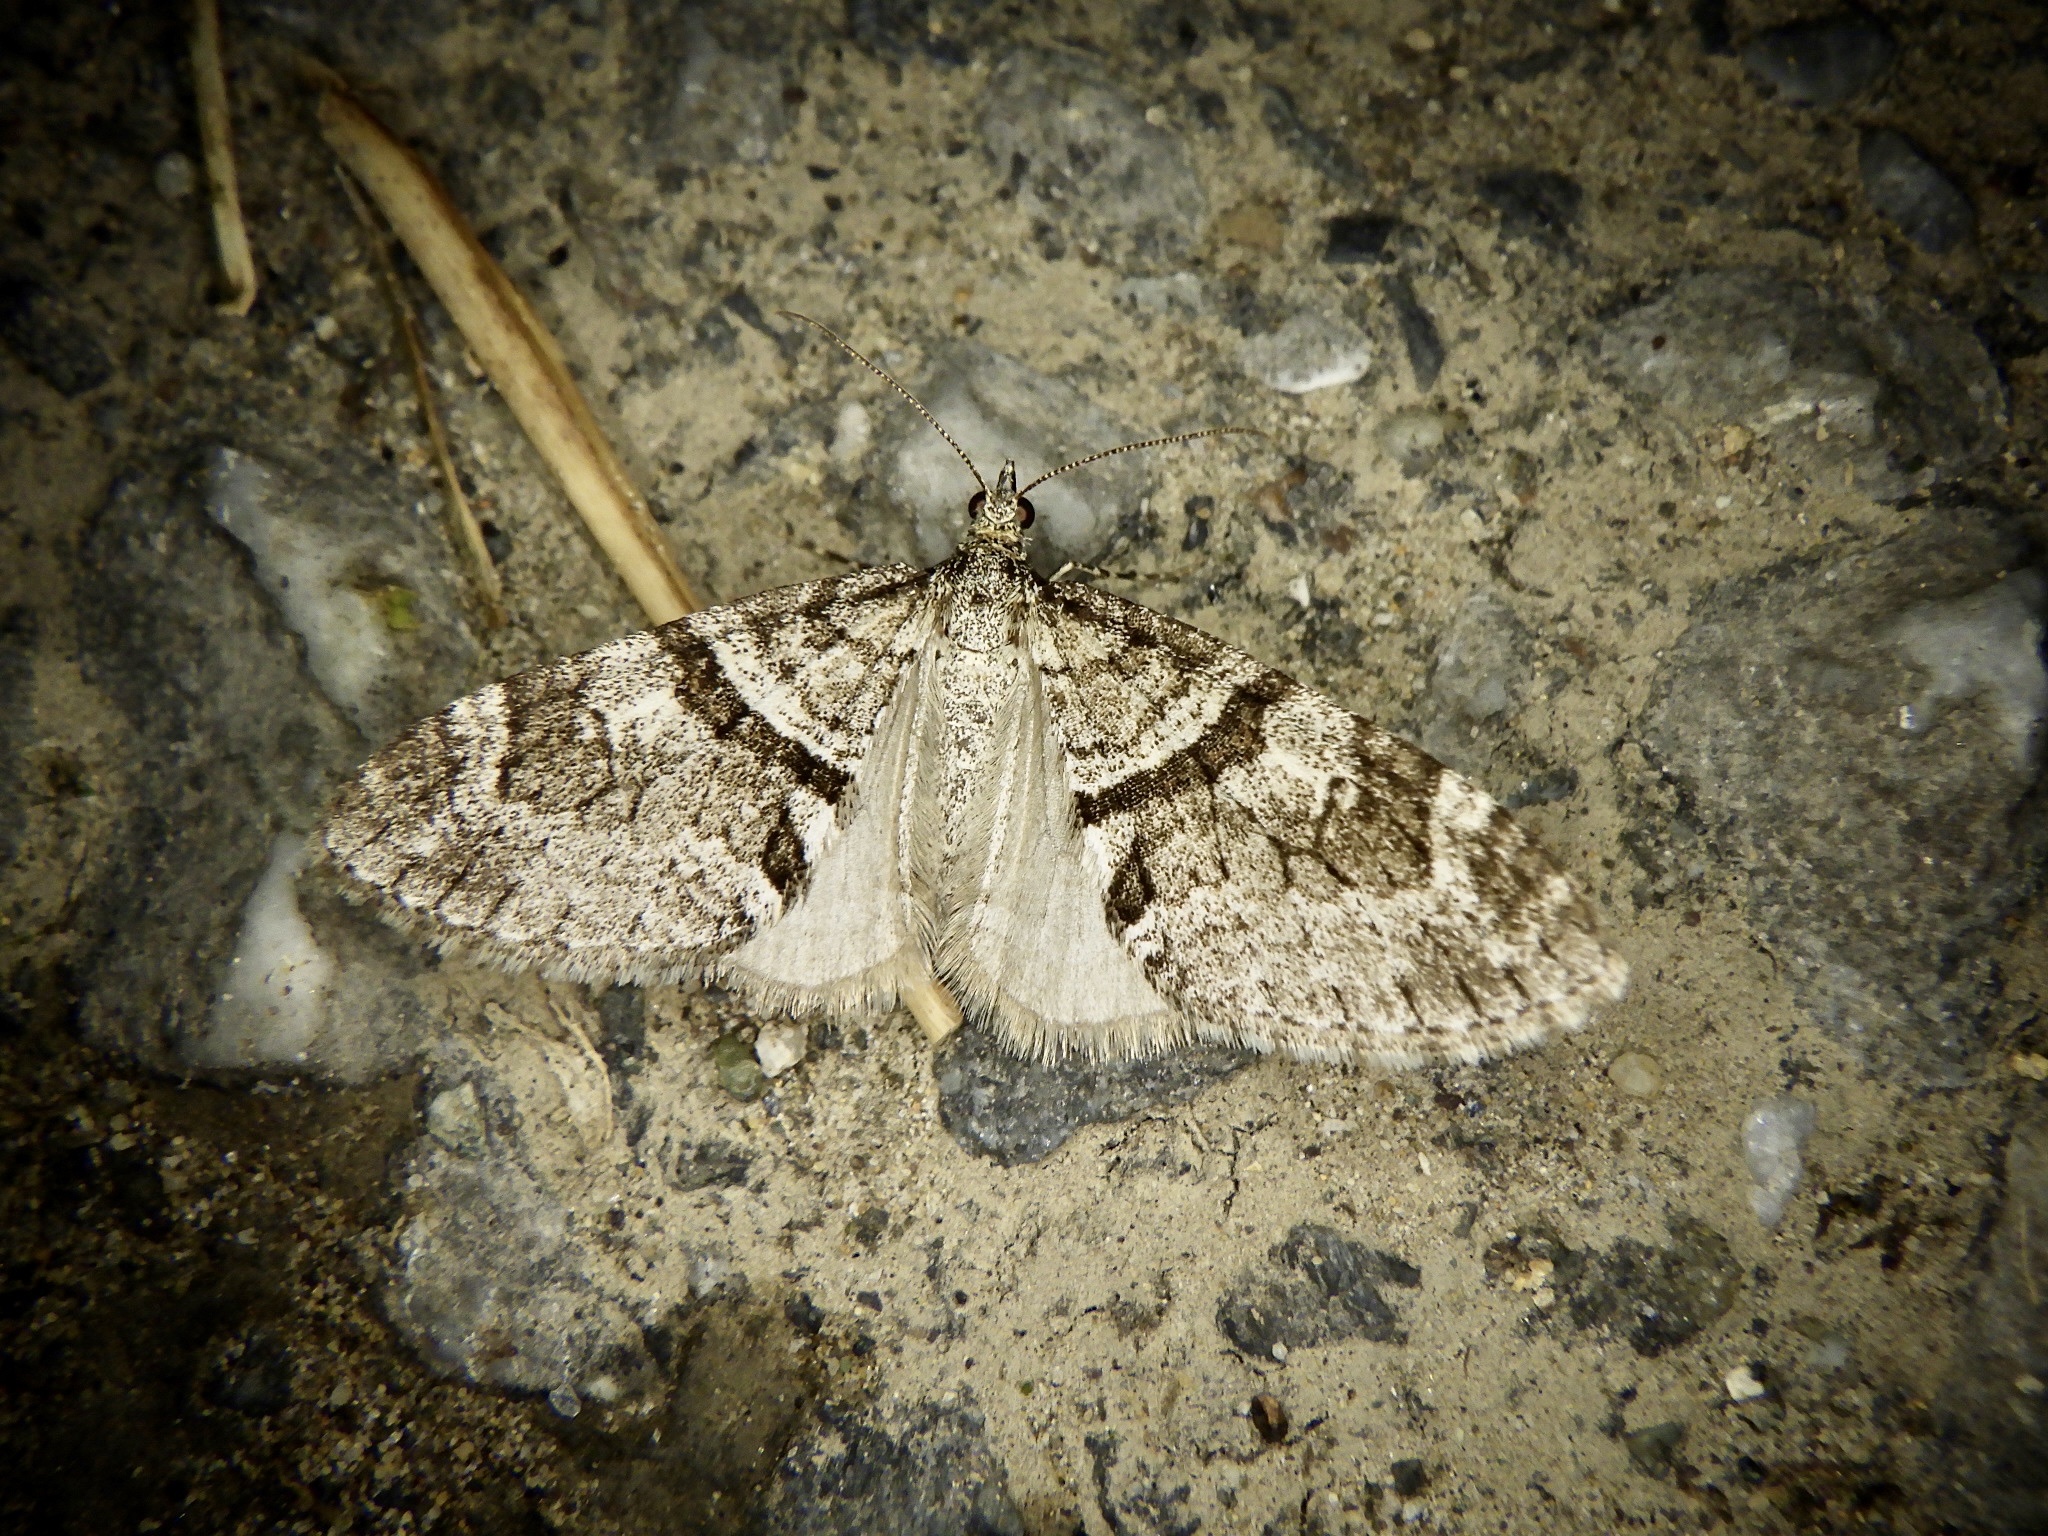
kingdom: Animalia
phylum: Arthropoda
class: Insecta
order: Lepidoptera
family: Geometridae
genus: Trichopteryx
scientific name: Trichopteryx terranea
